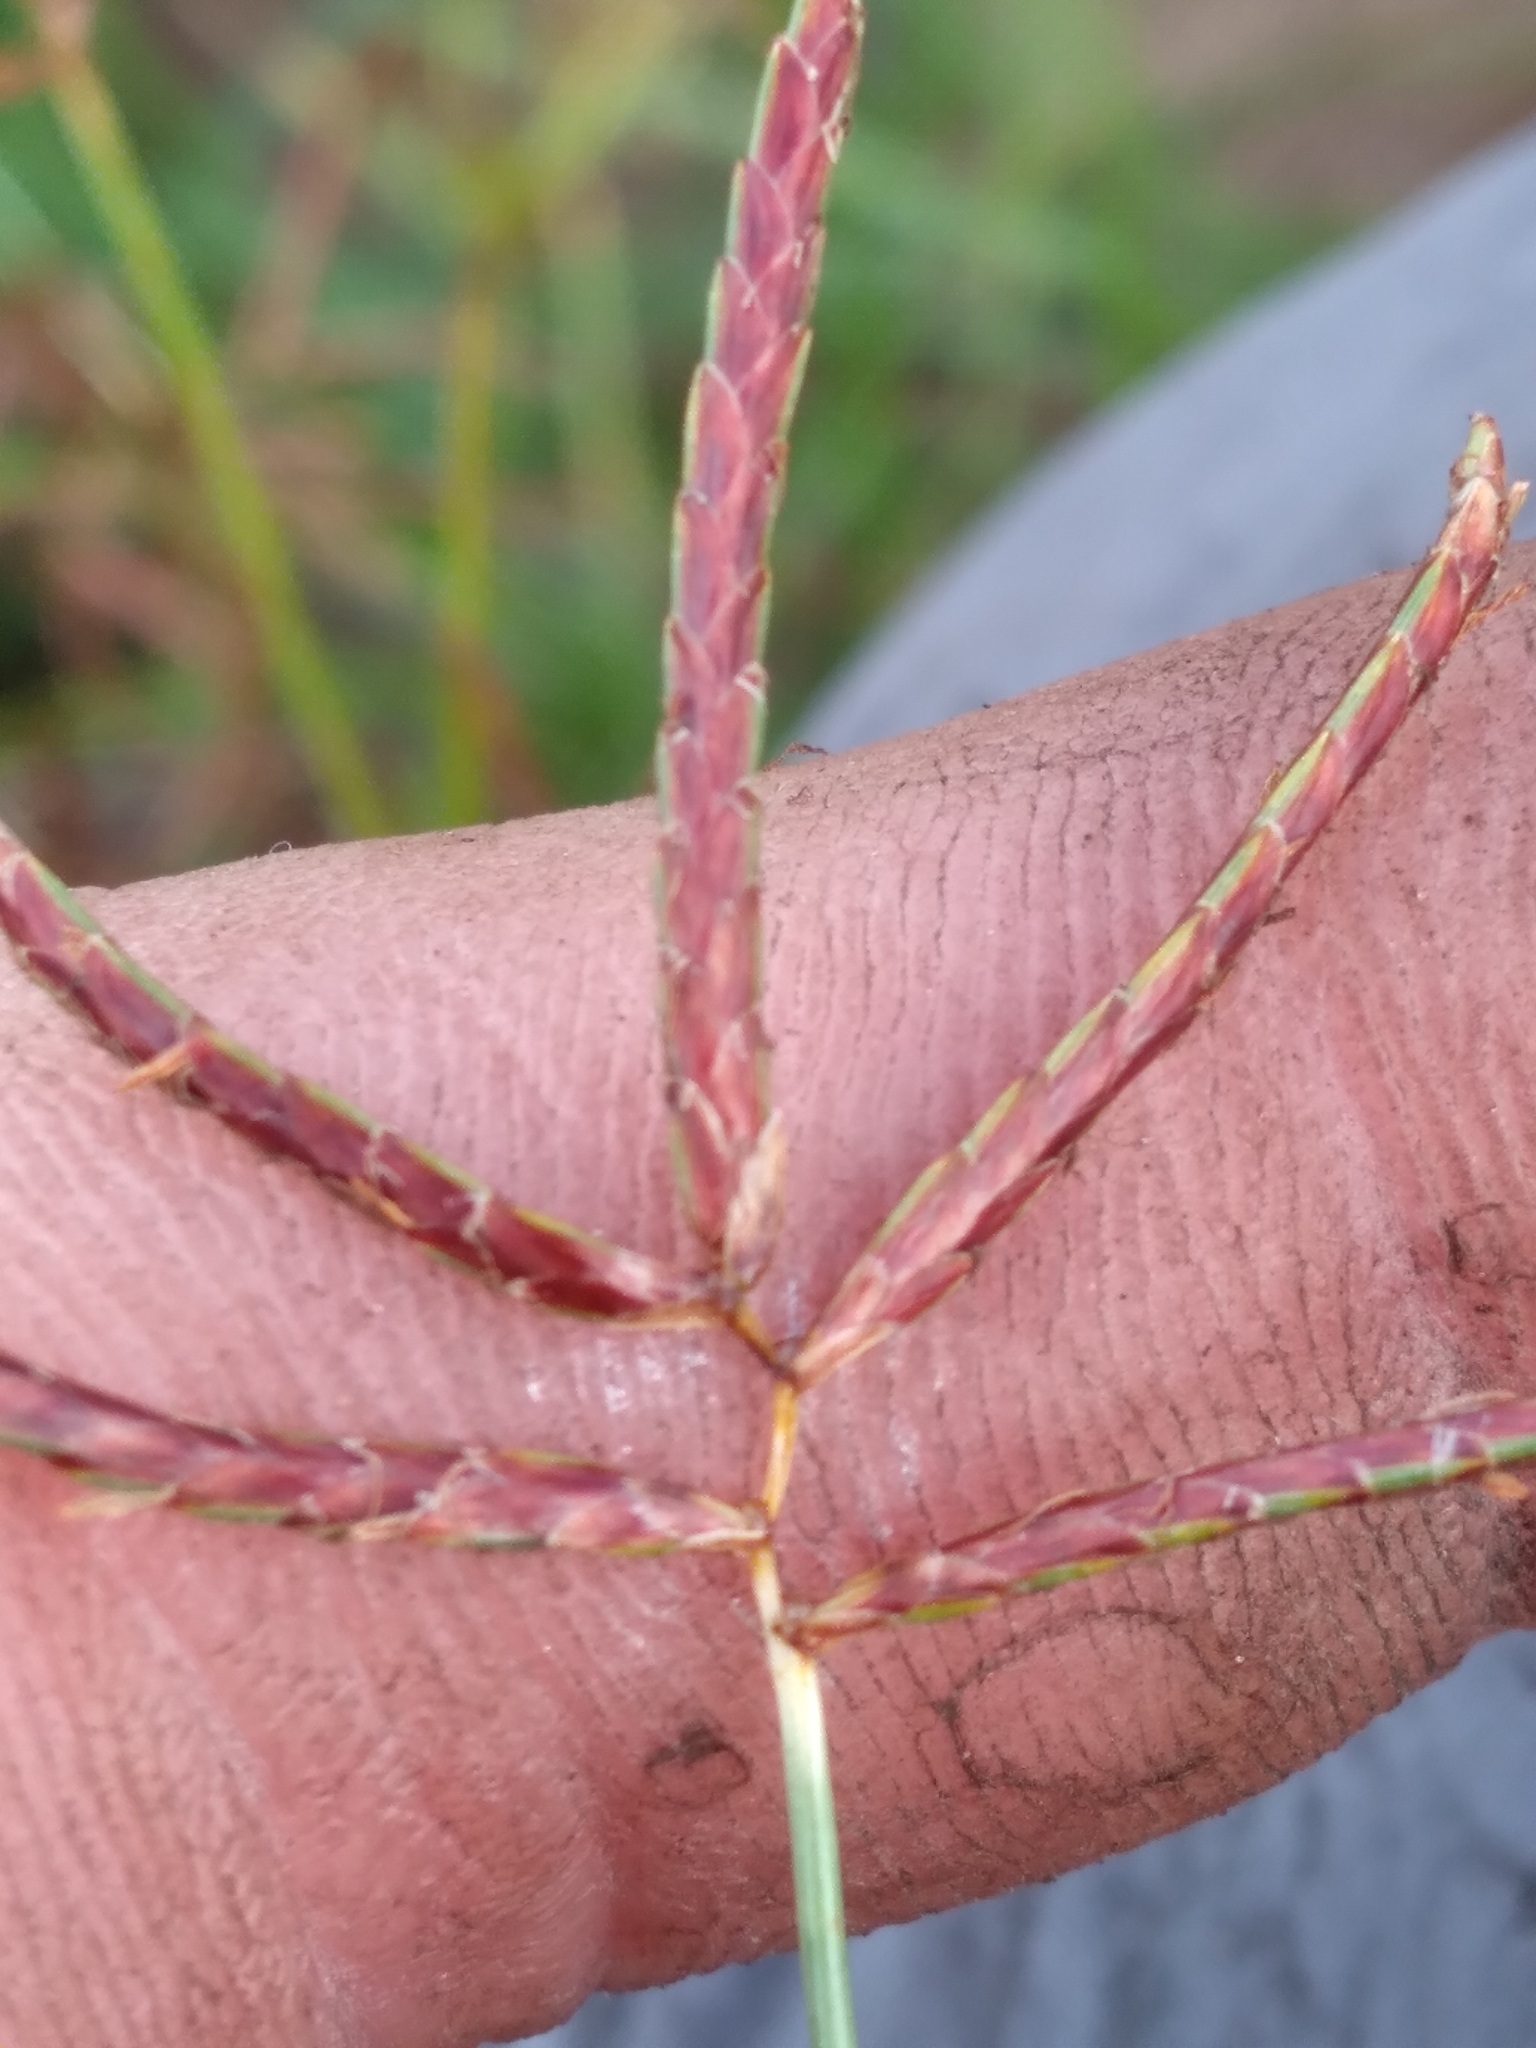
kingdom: Plantae
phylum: Tracheophyta
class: Liliopsida
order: Poales
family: Cyperaceae
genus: Cyperus
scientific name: Cyperus rotundus
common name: Nutgrass
